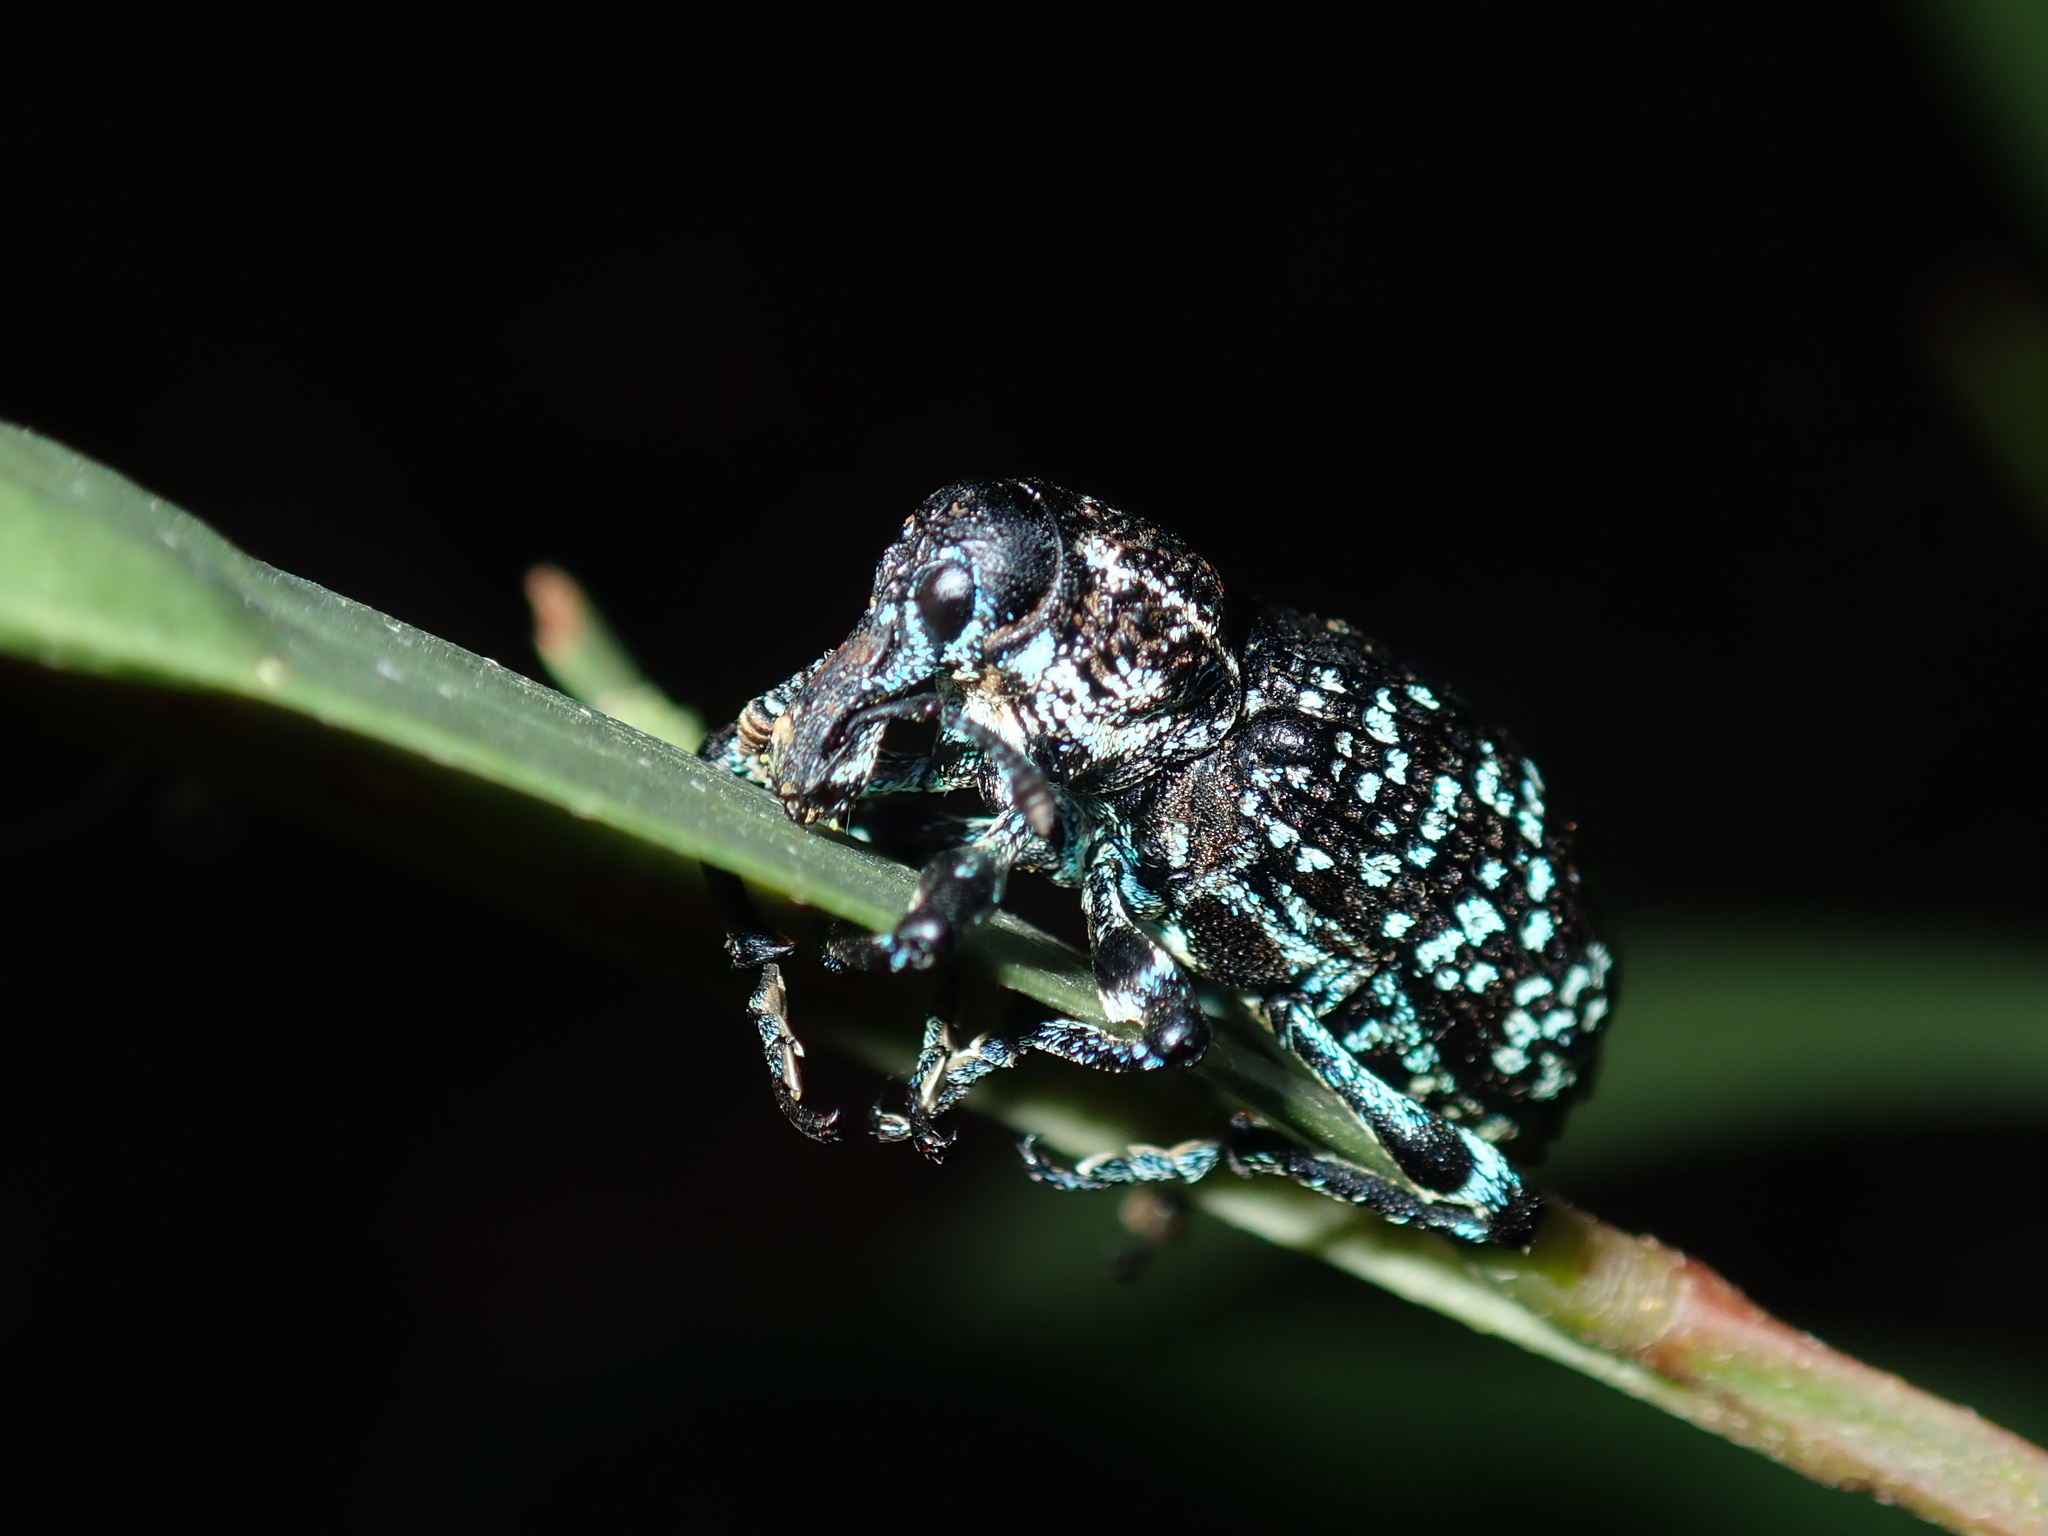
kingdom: Animalia
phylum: Arthropoda
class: Insecta
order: Coleoptera
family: Curculionidae
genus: Chrysolopus
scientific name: Chrysolopus spectabilis
